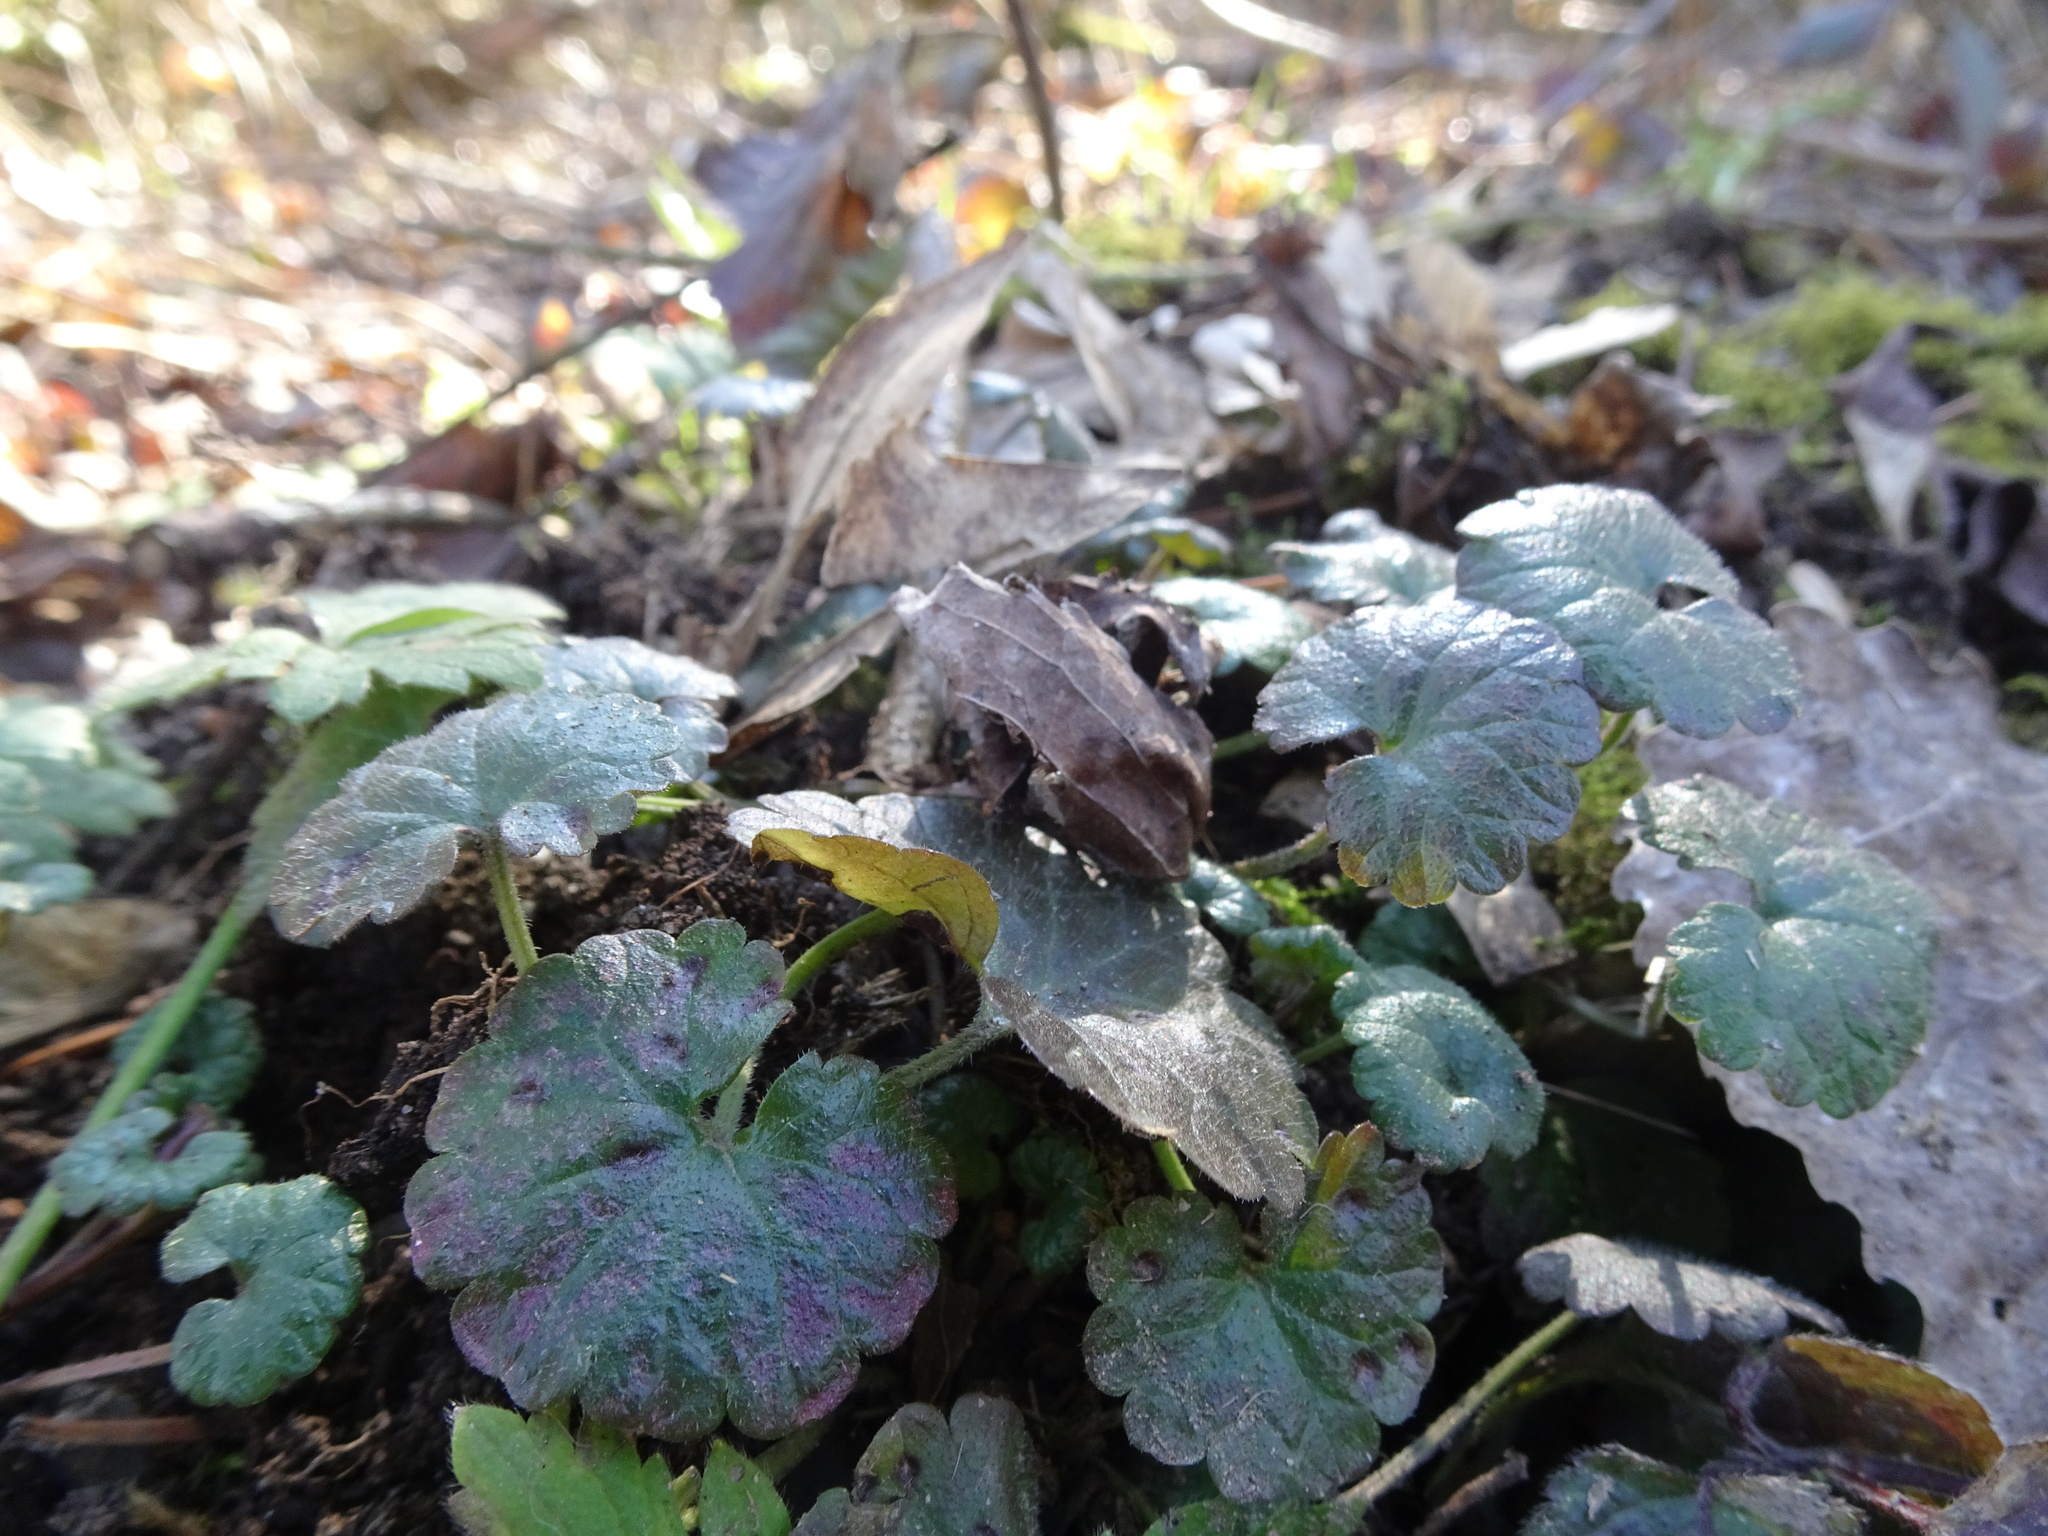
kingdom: Plantae
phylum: Tracheophyta
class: Magnoliopsida
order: Lamiales
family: Lamiaceae
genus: Glechoma
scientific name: Glechoma hederacea
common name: Ground ivy
